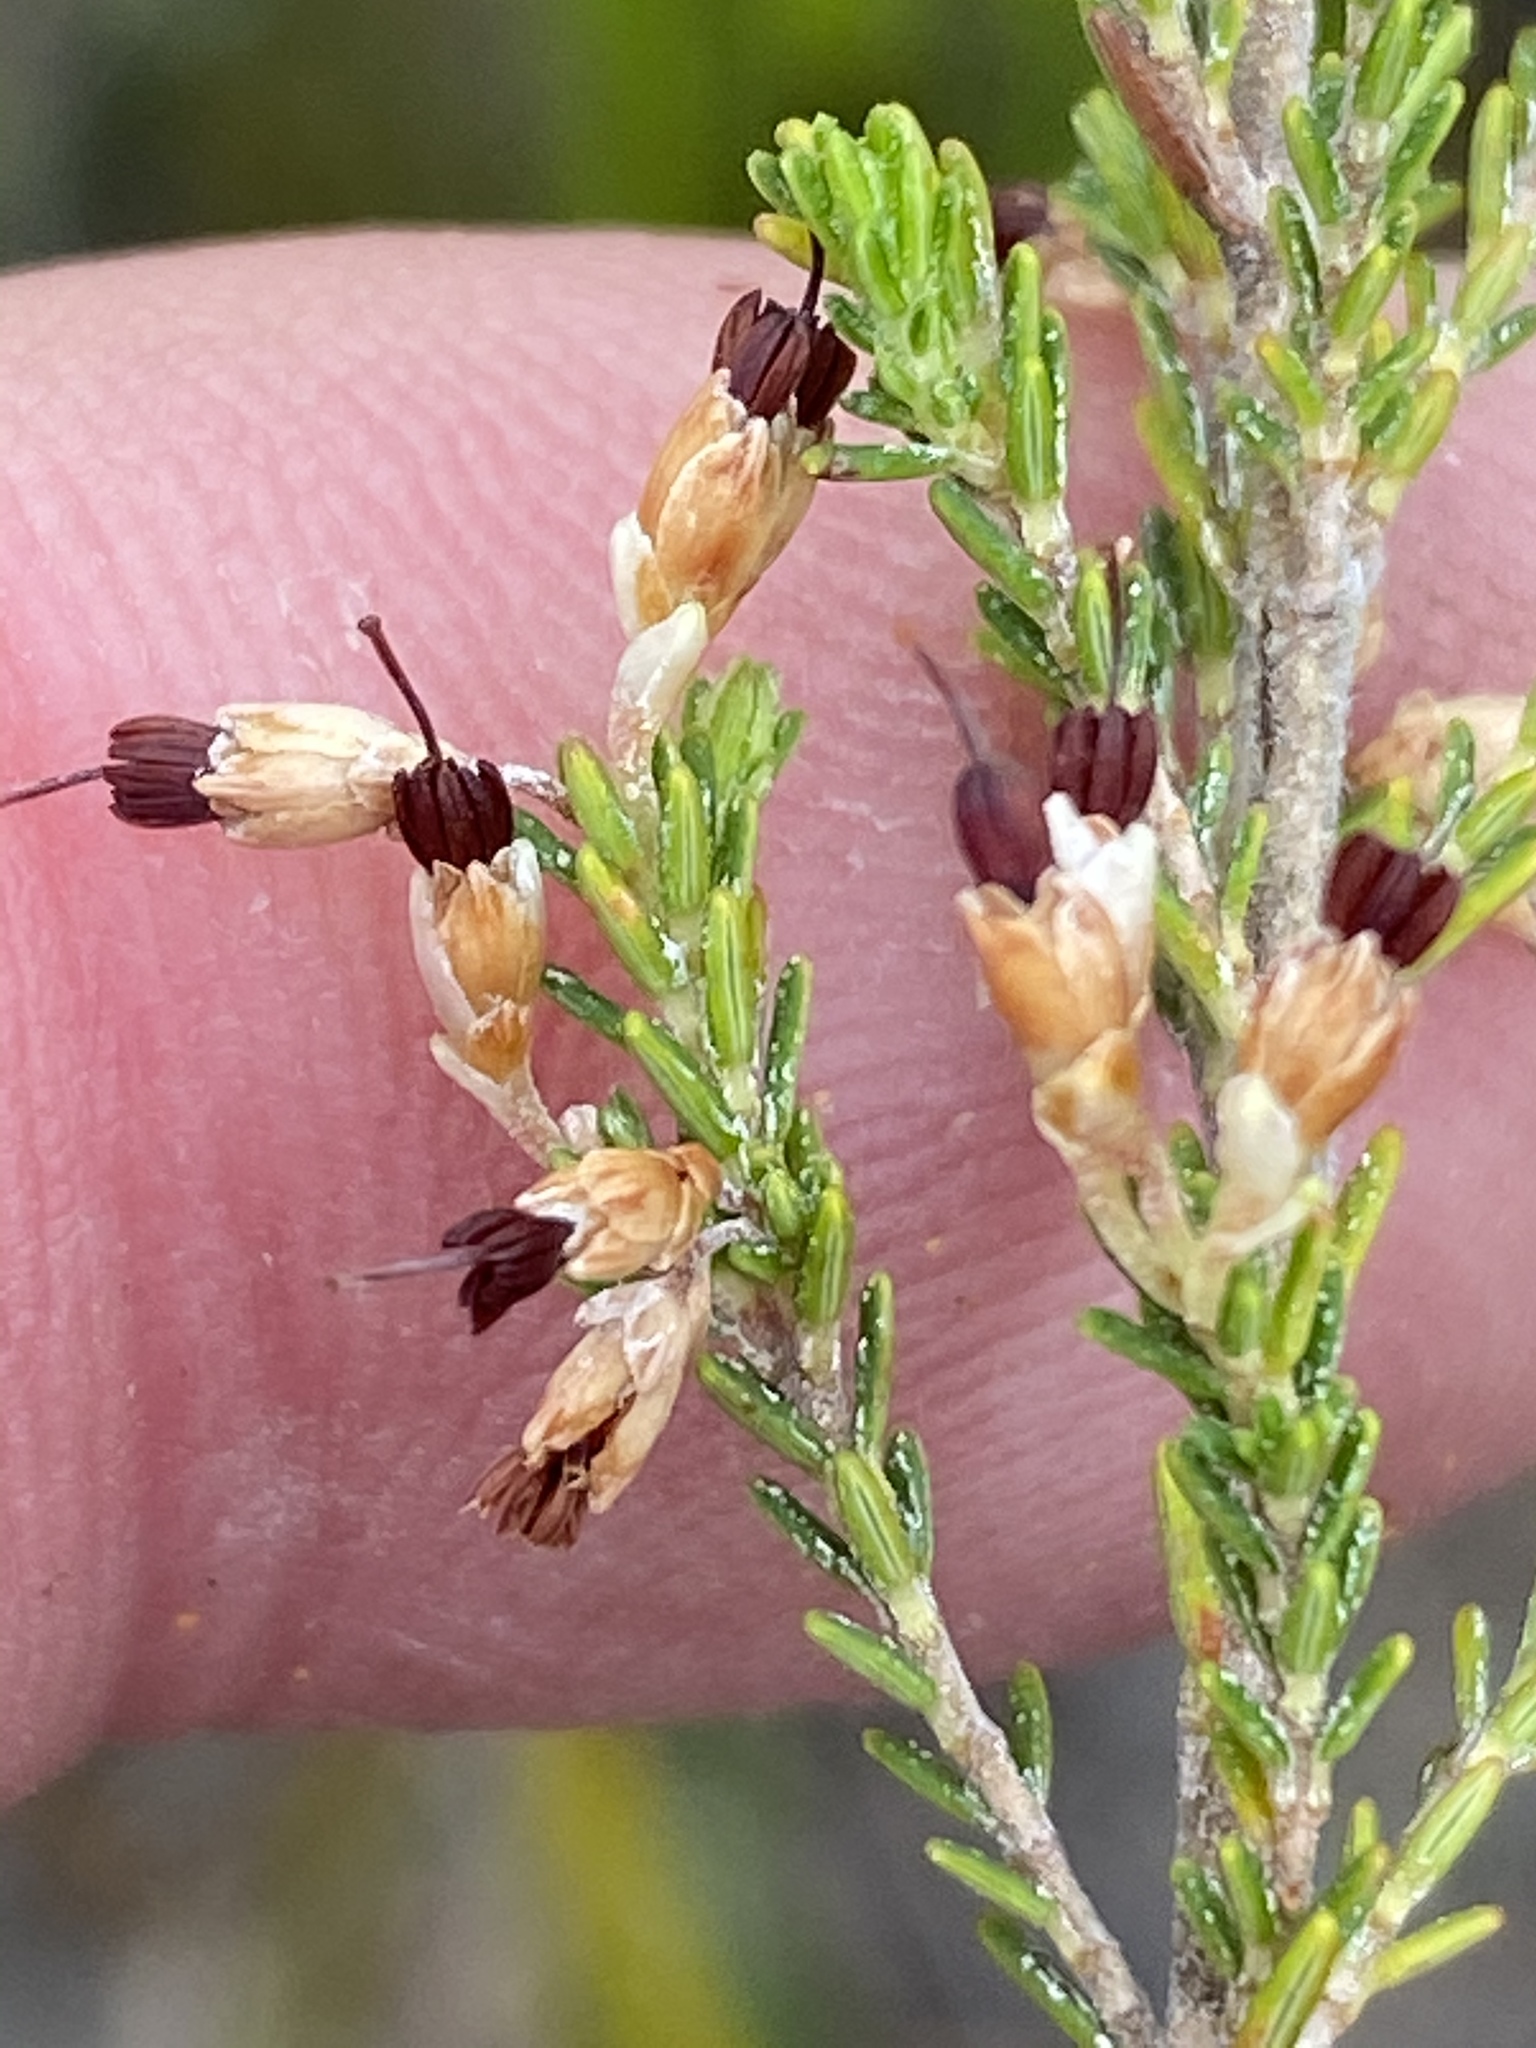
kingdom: Plantae
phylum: Tracheophyta
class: Magnoliopsida
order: Ericales
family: Ericaceae
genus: Erica
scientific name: Erica imbricata
